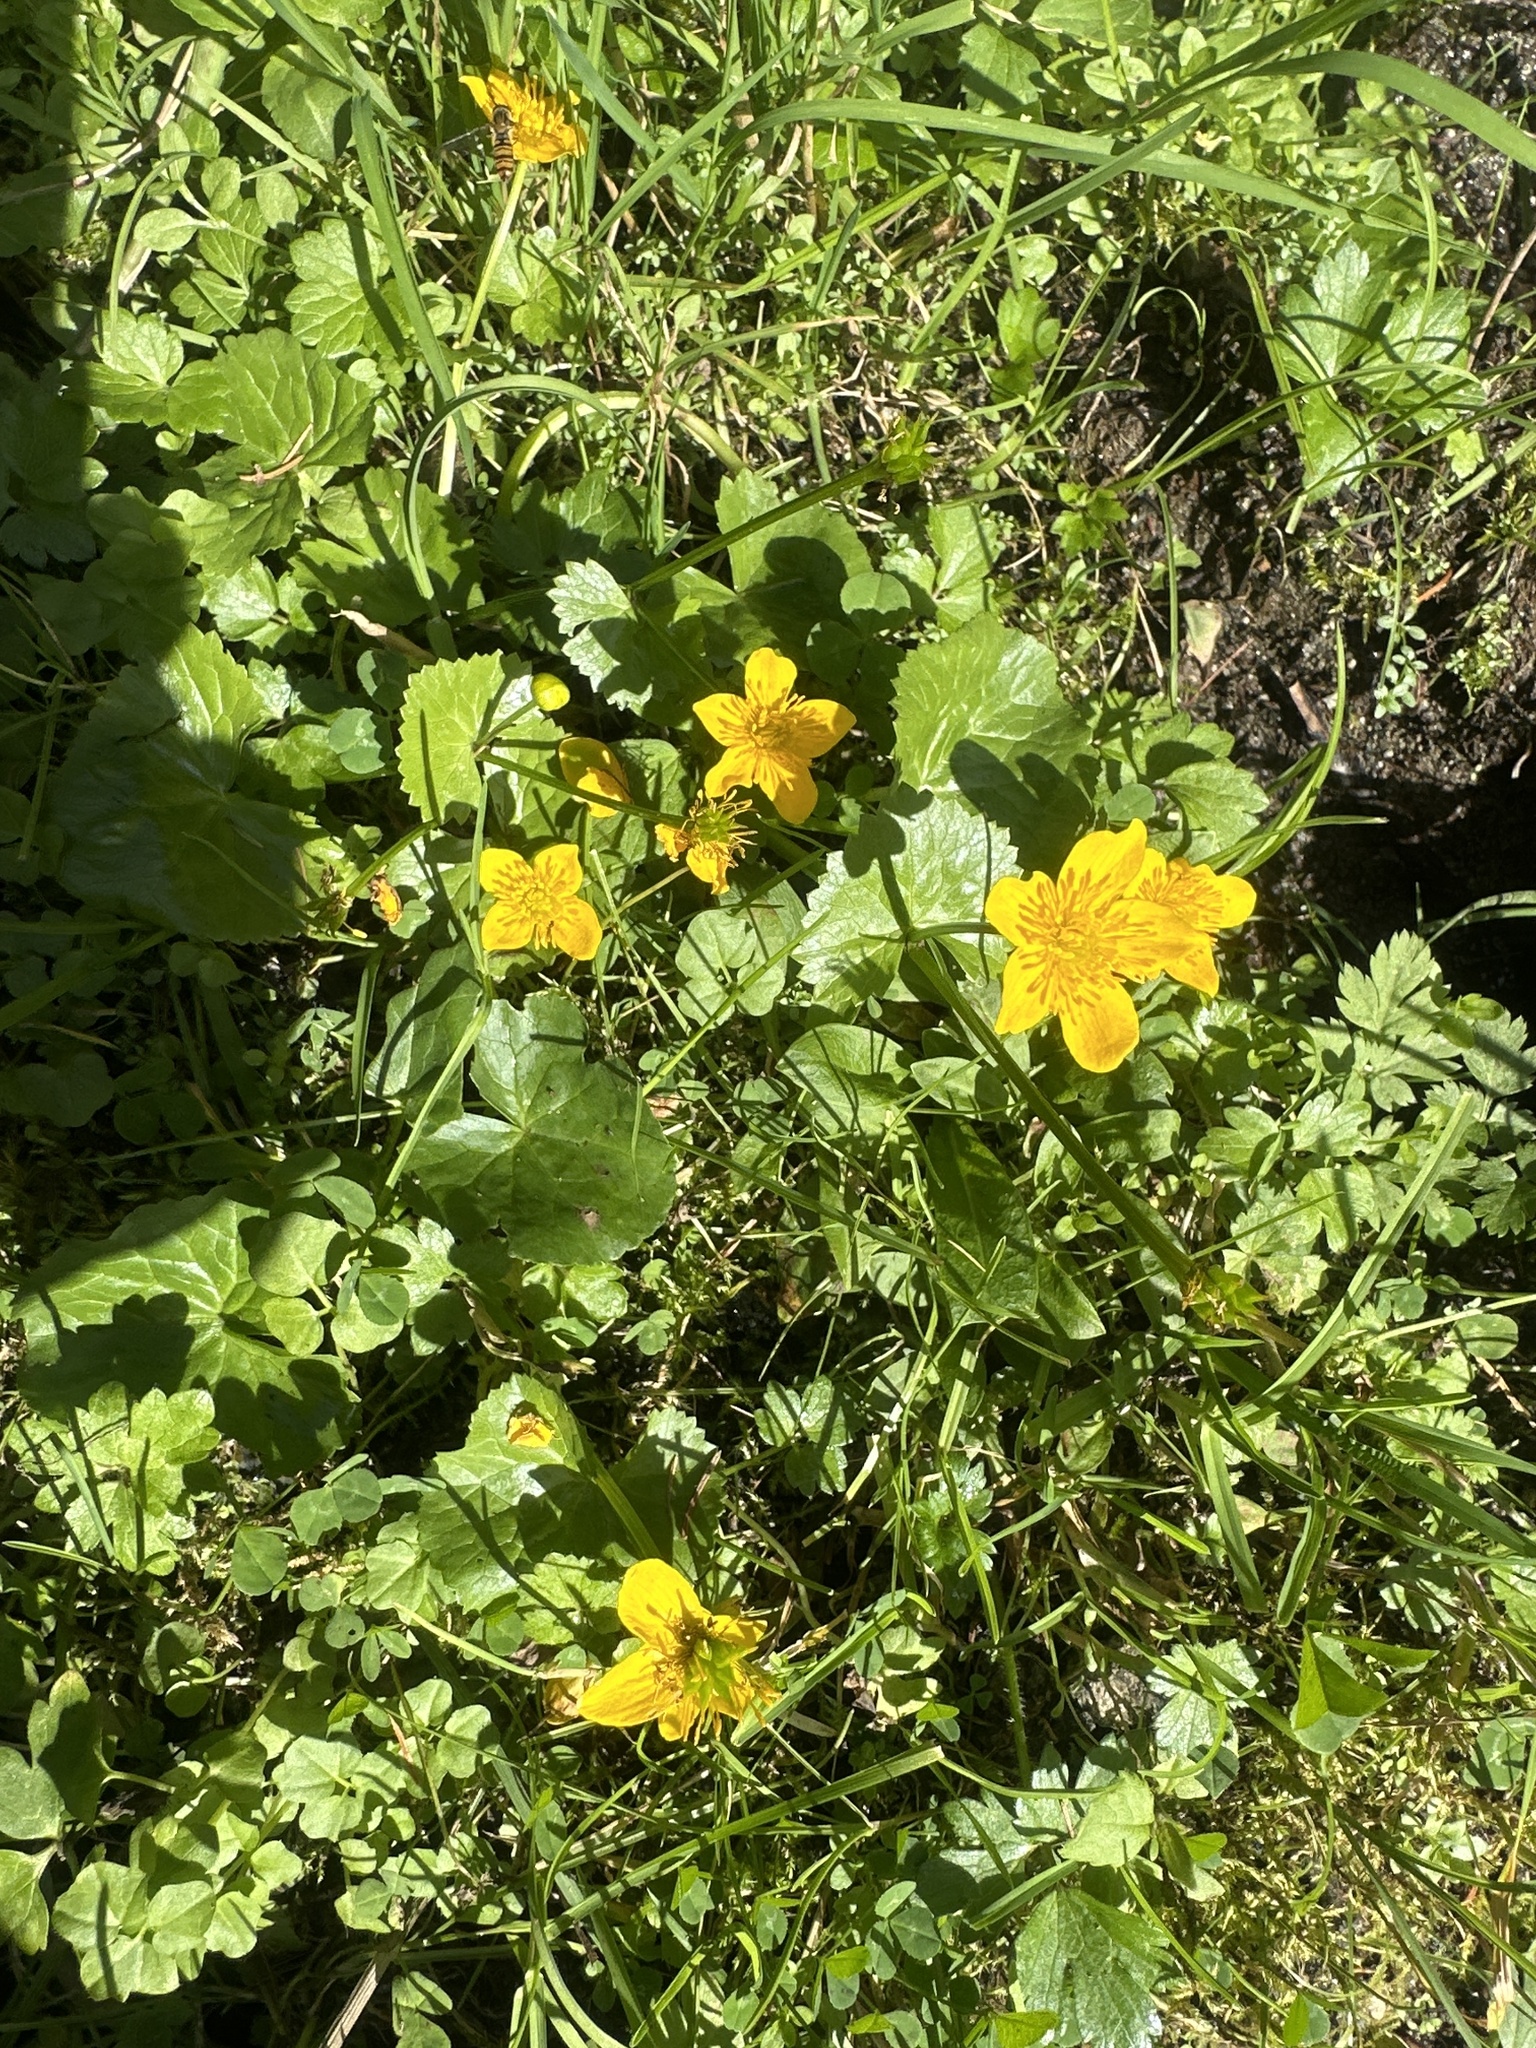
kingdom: Plantae
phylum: Tracheophyta
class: Magnoliopsida
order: Ranunculales
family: Ranunculaceae
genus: Caltha
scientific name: Caltha palustris
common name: Marsh marigold
